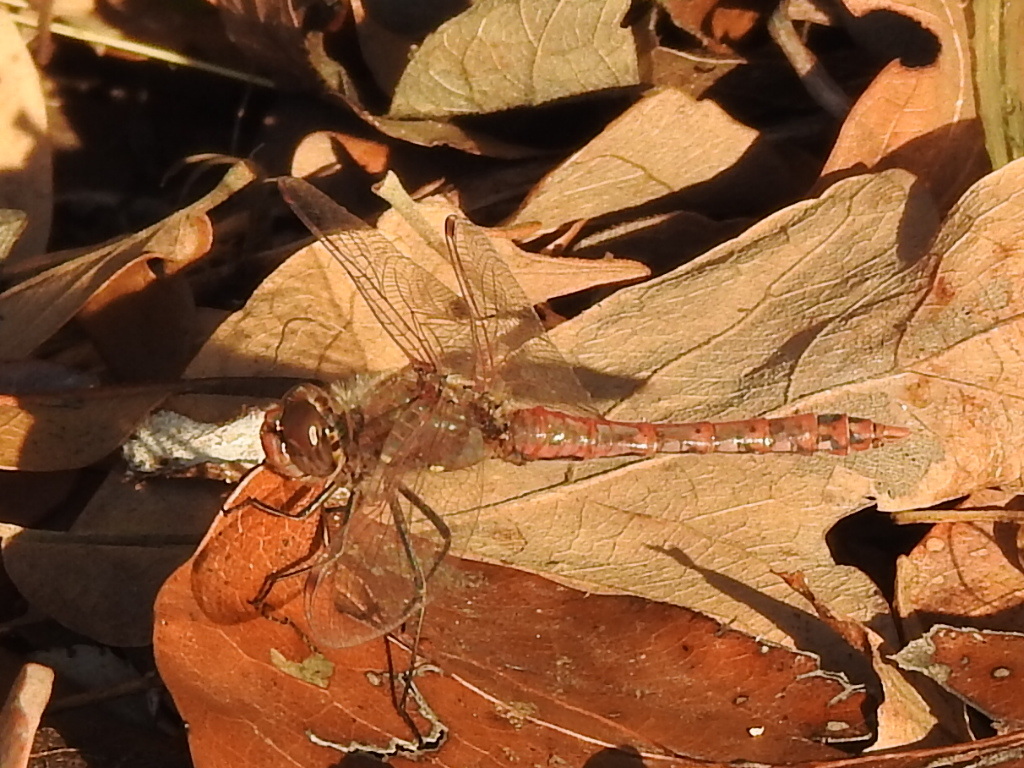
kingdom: Animalia
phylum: Arthropoda
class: Insecta
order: Odonata
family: Libellulidae
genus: Sympetrum
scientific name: Sympetrum corruptum
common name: Variegated meadowhawk
